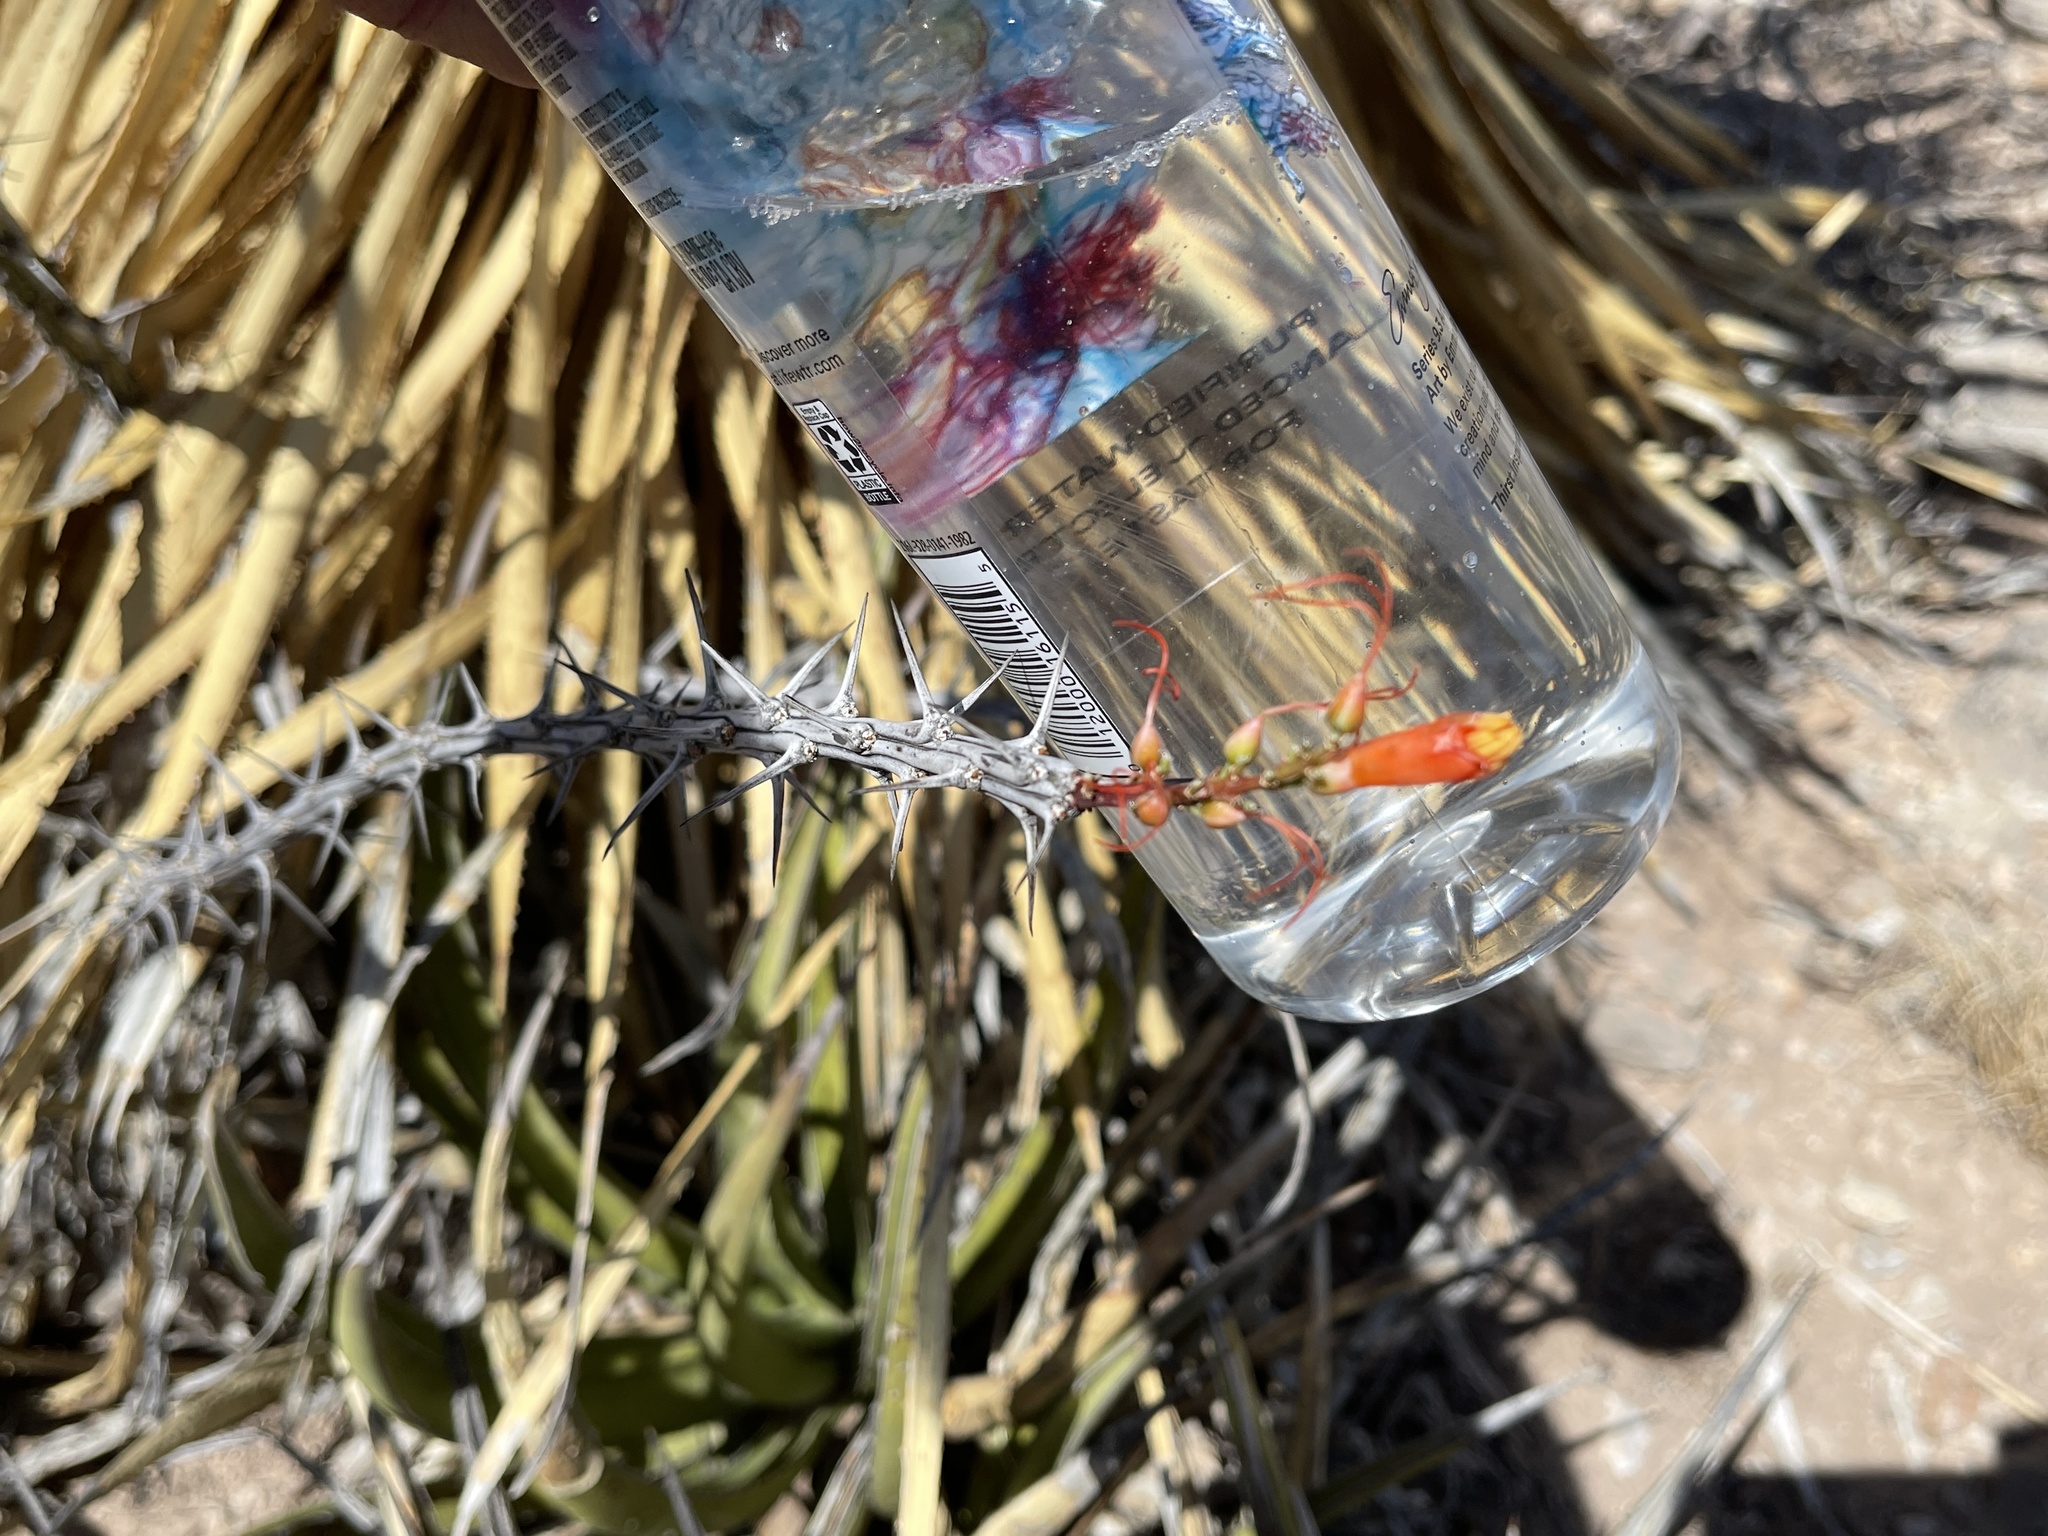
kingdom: Plantae
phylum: Tracheophyta
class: Magnoliopsida
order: Ericales
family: Fouquieriaceae
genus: Fouquieria
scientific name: Fouquieria splendens
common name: Vine-cactus
